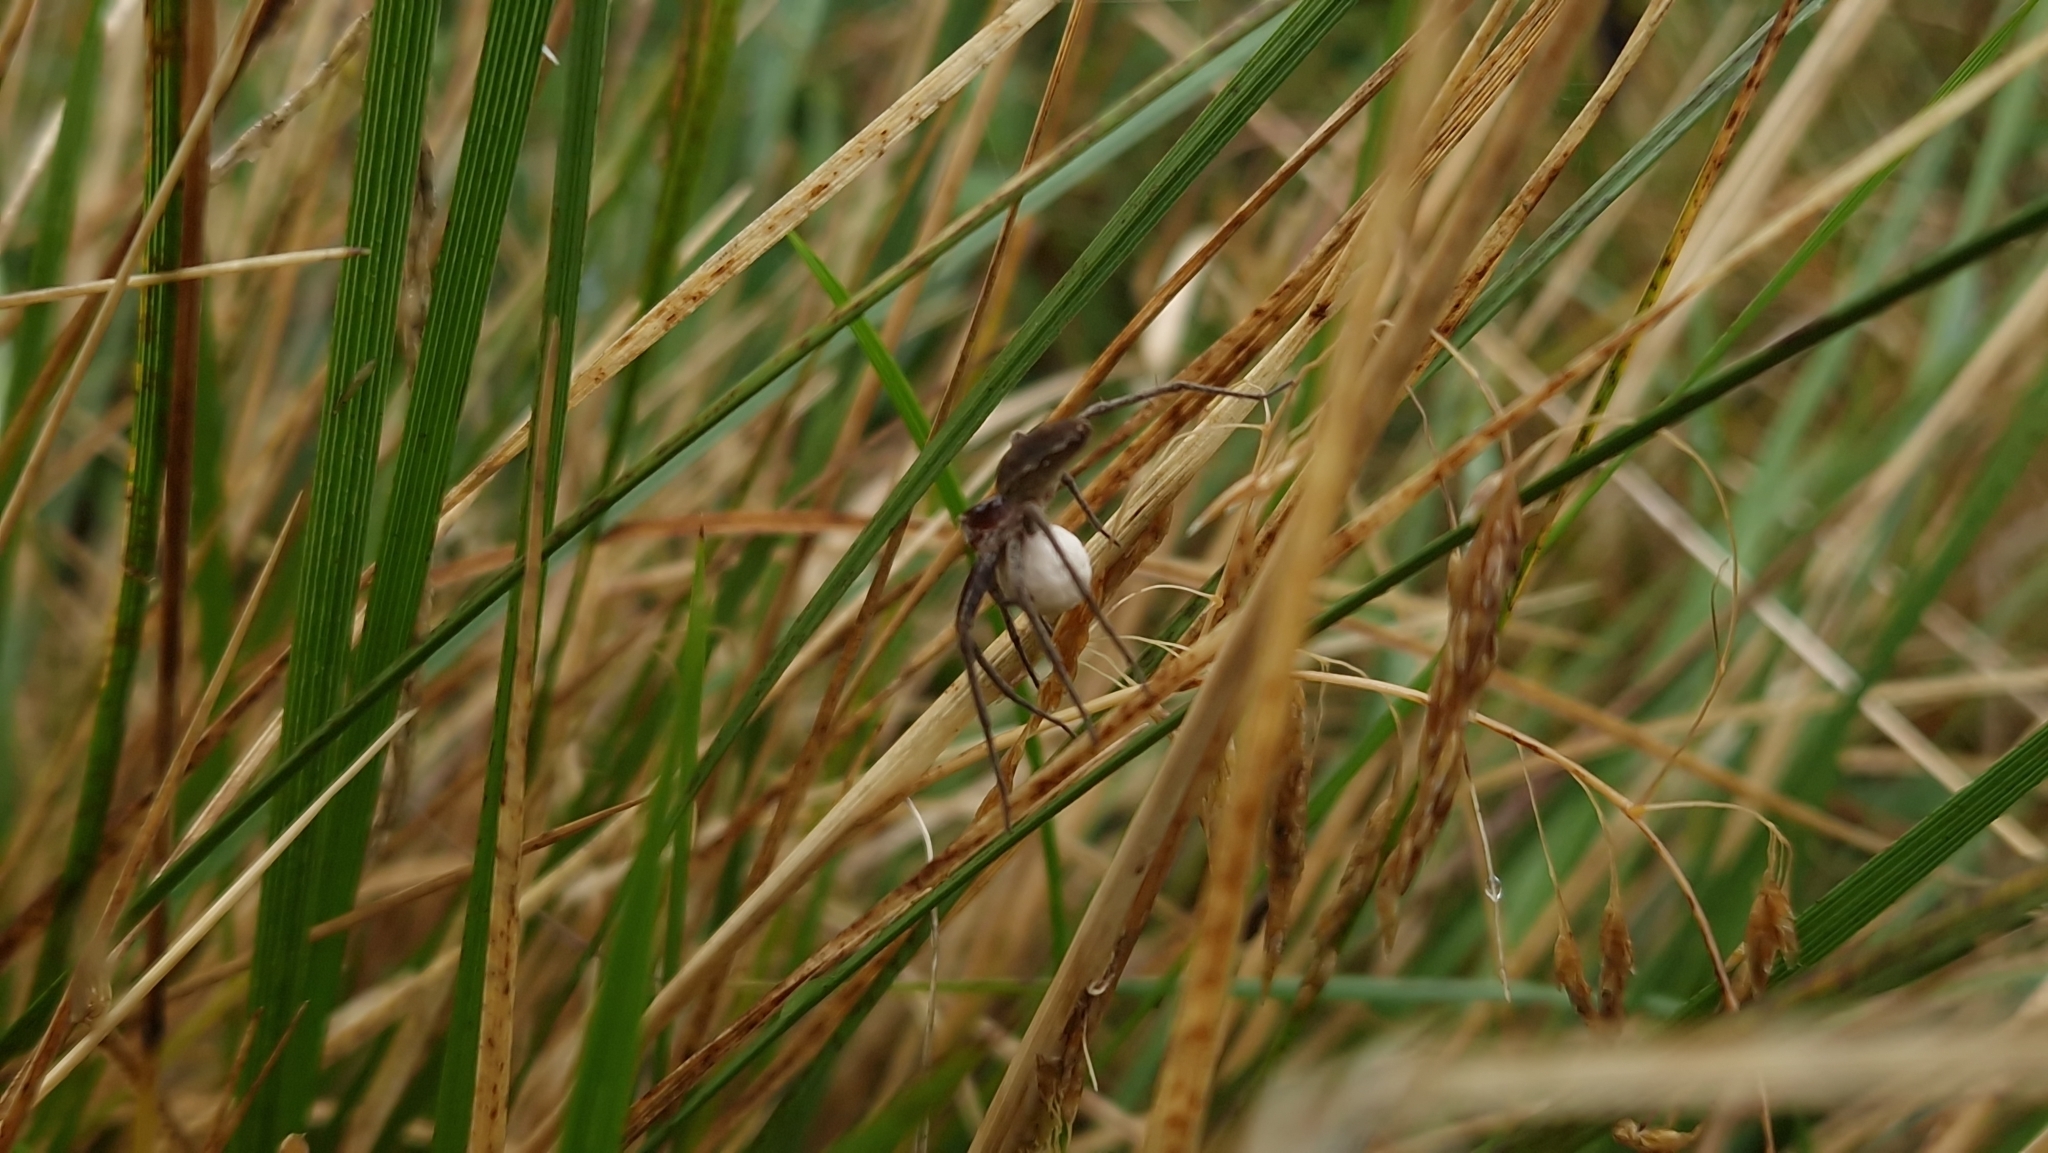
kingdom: Animalia
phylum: Arthropoda
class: Arachnida
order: Araneae
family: Pisauridae
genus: Pisaura
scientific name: Pisaura mirabilis
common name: Tent spider
